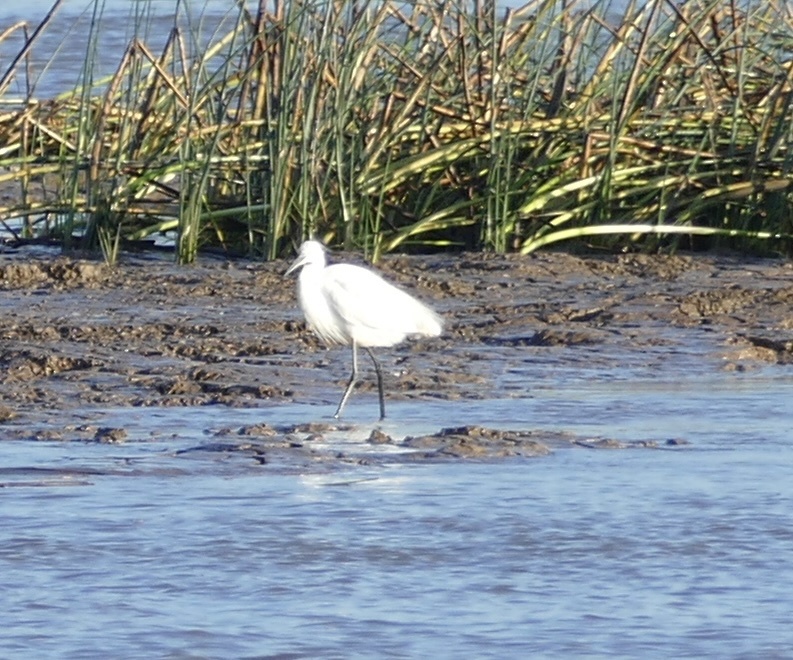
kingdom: Animalia
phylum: Chordata
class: Aves
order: Pelecaniformes
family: Ardeidae
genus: Egretta
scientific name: Egretta garzetta
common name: Little egret
